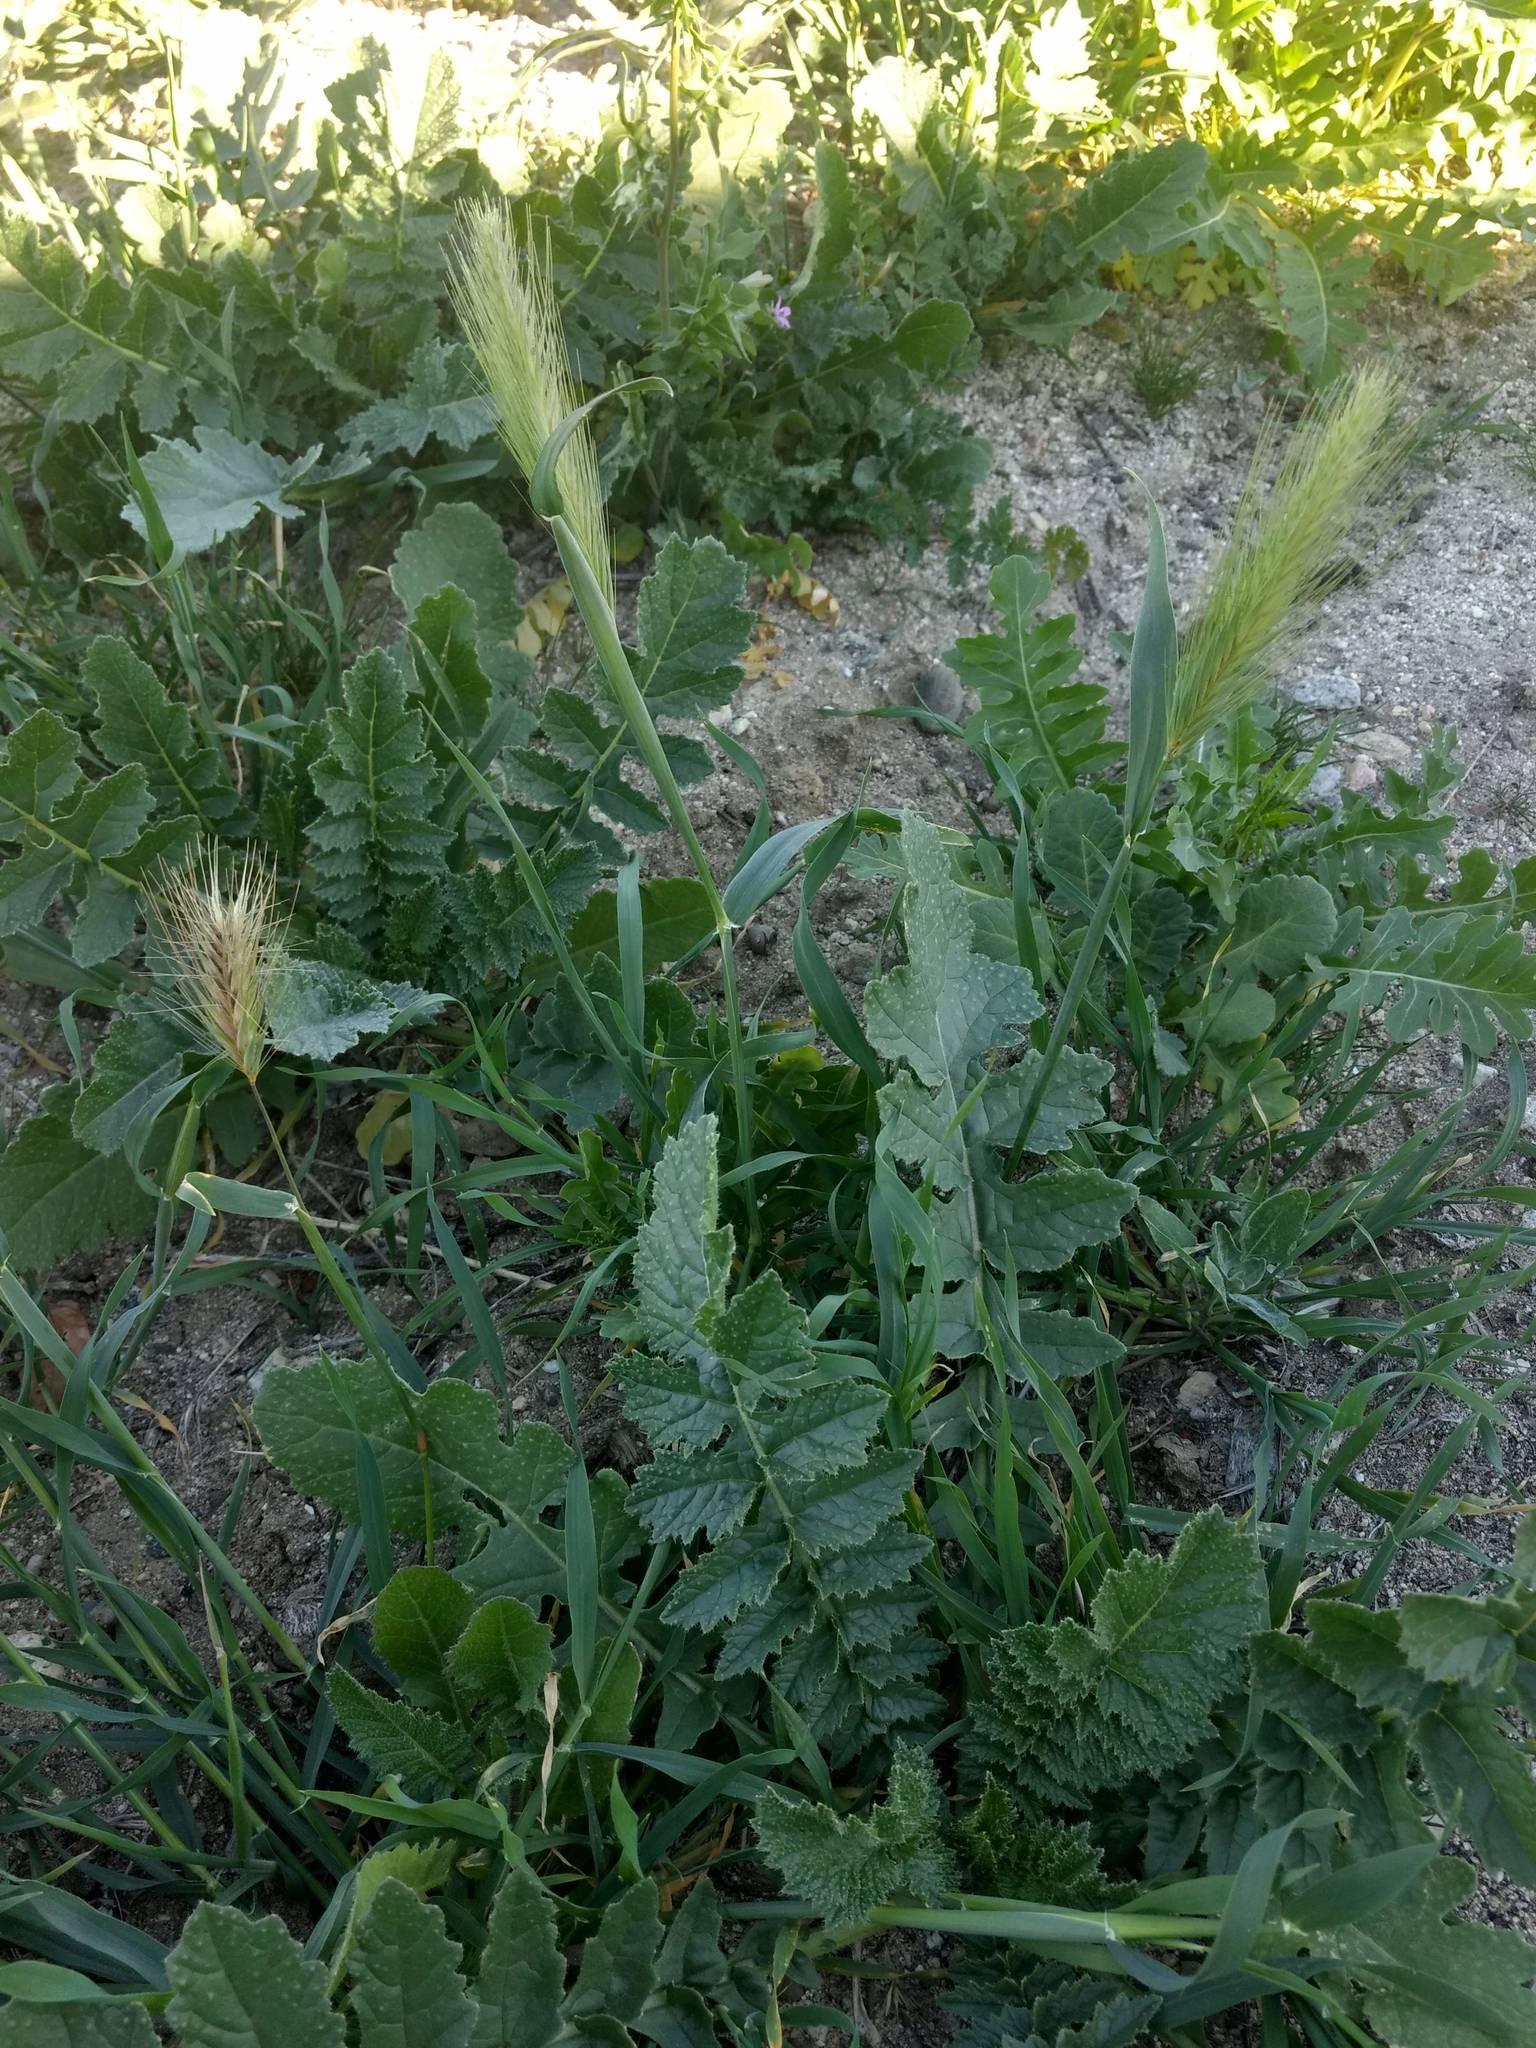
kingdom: Plantae
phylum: Tracheophyta
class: Liliopsida
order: Poales
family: Poaceae
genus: Hordeum
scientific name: Hordeum murinum
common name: Wall barley
